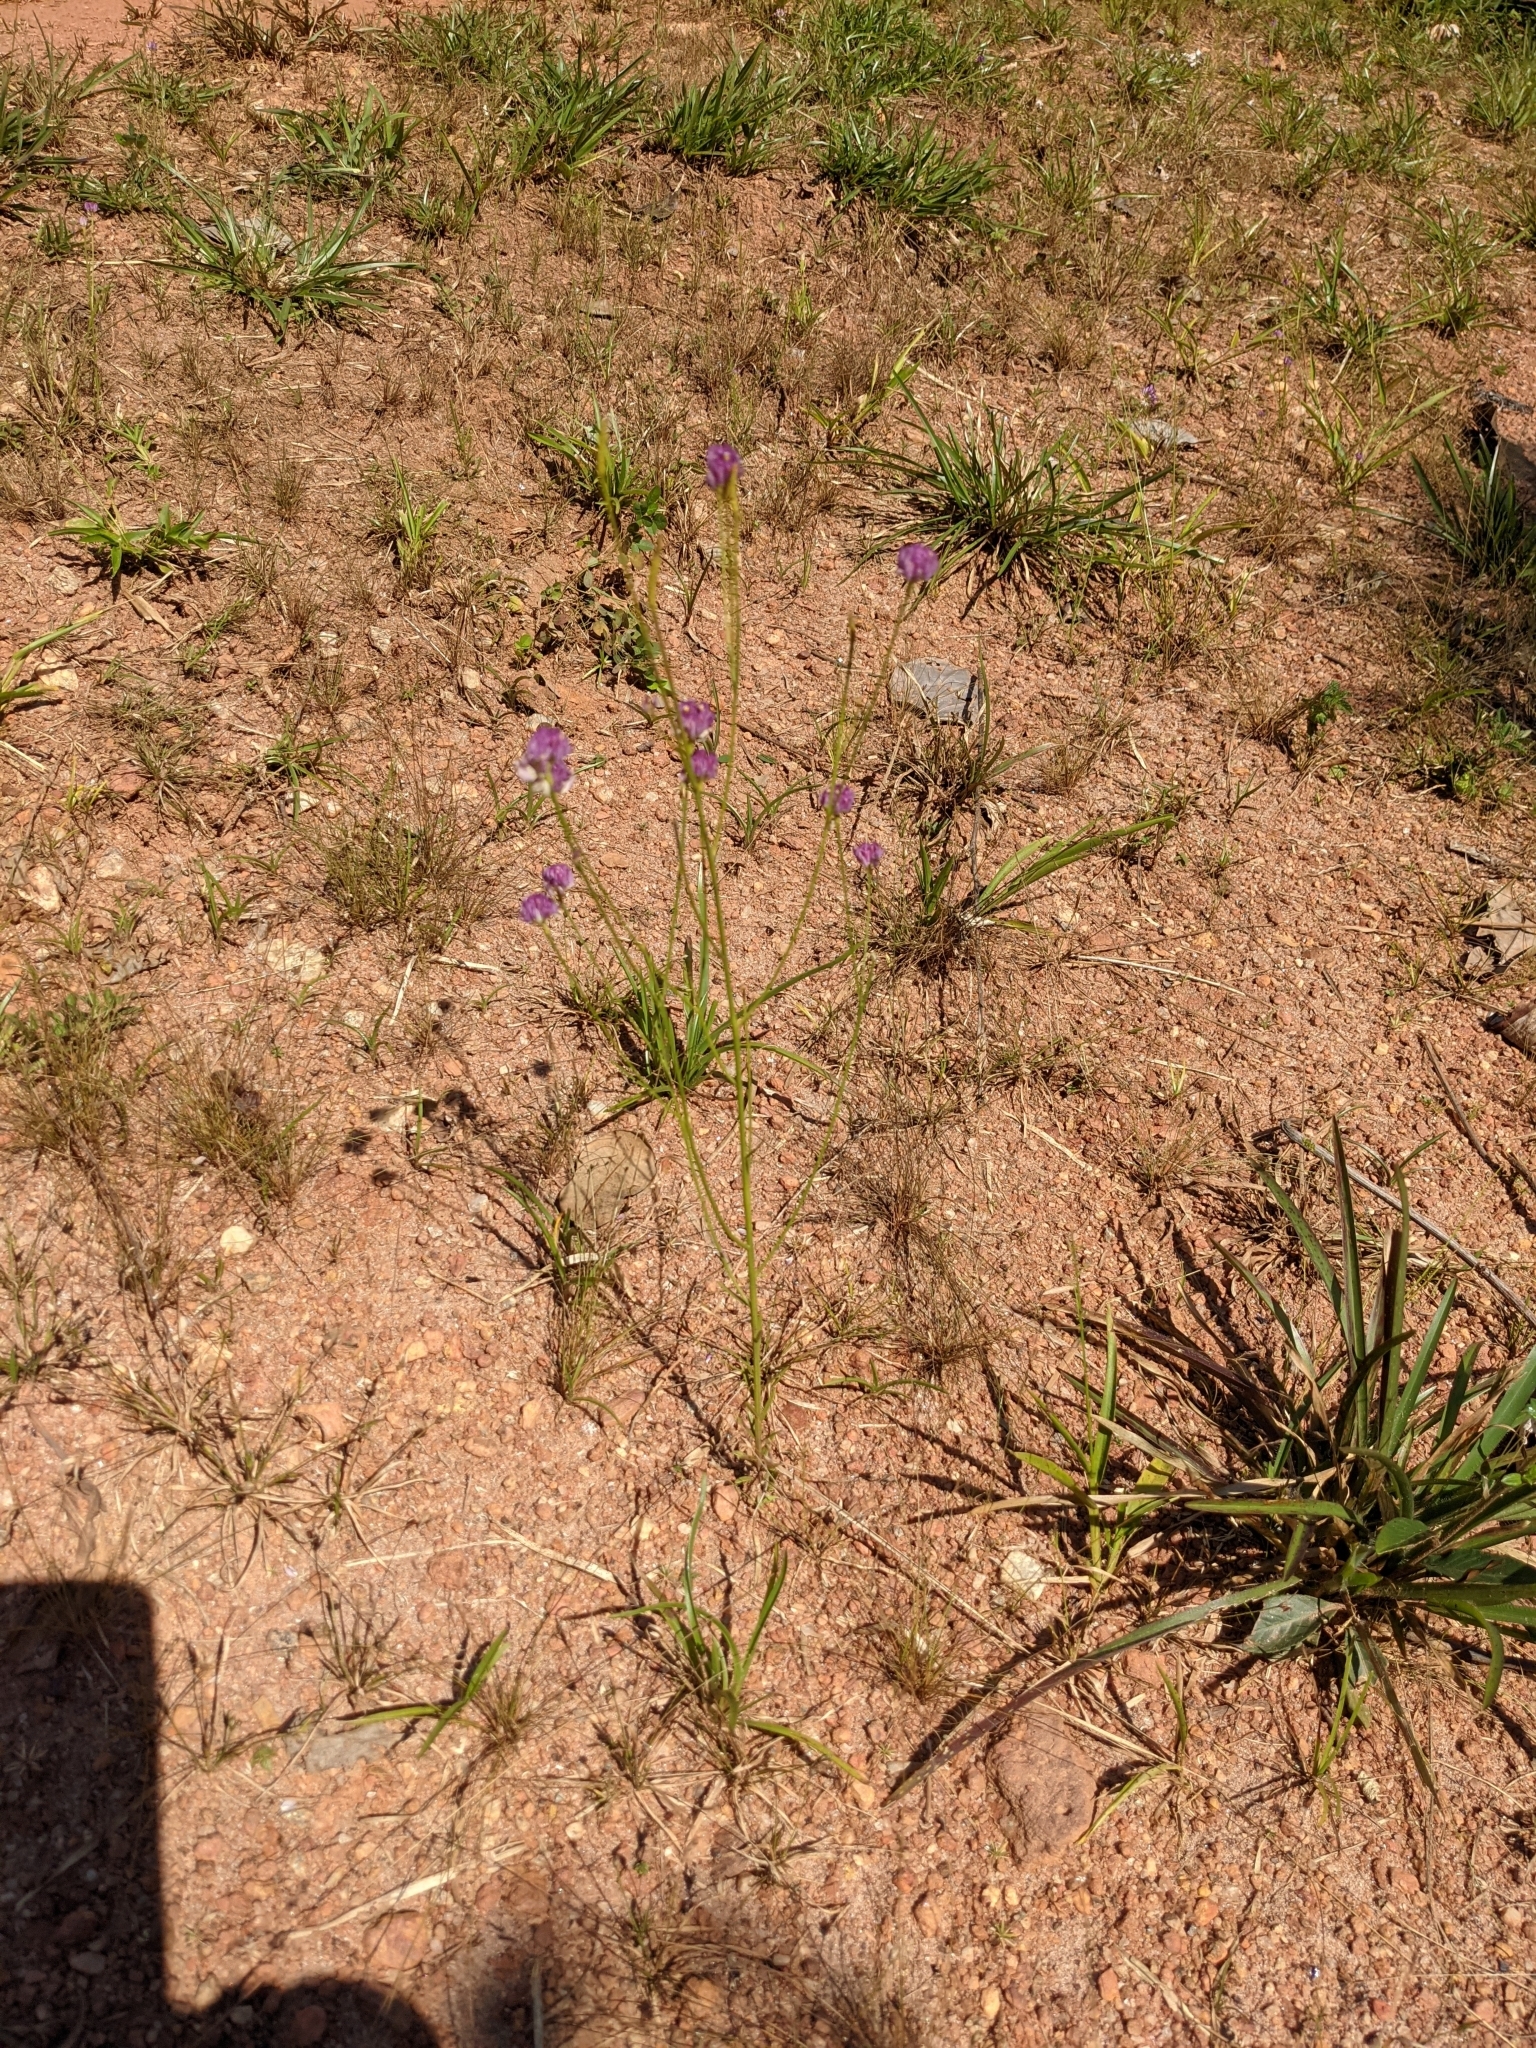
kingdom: Plantae
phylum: Tracheophyta
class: Magnoliopsida
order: Fabales
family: Polygalaceae
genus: Polygala
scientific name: Polygala longicaulis
